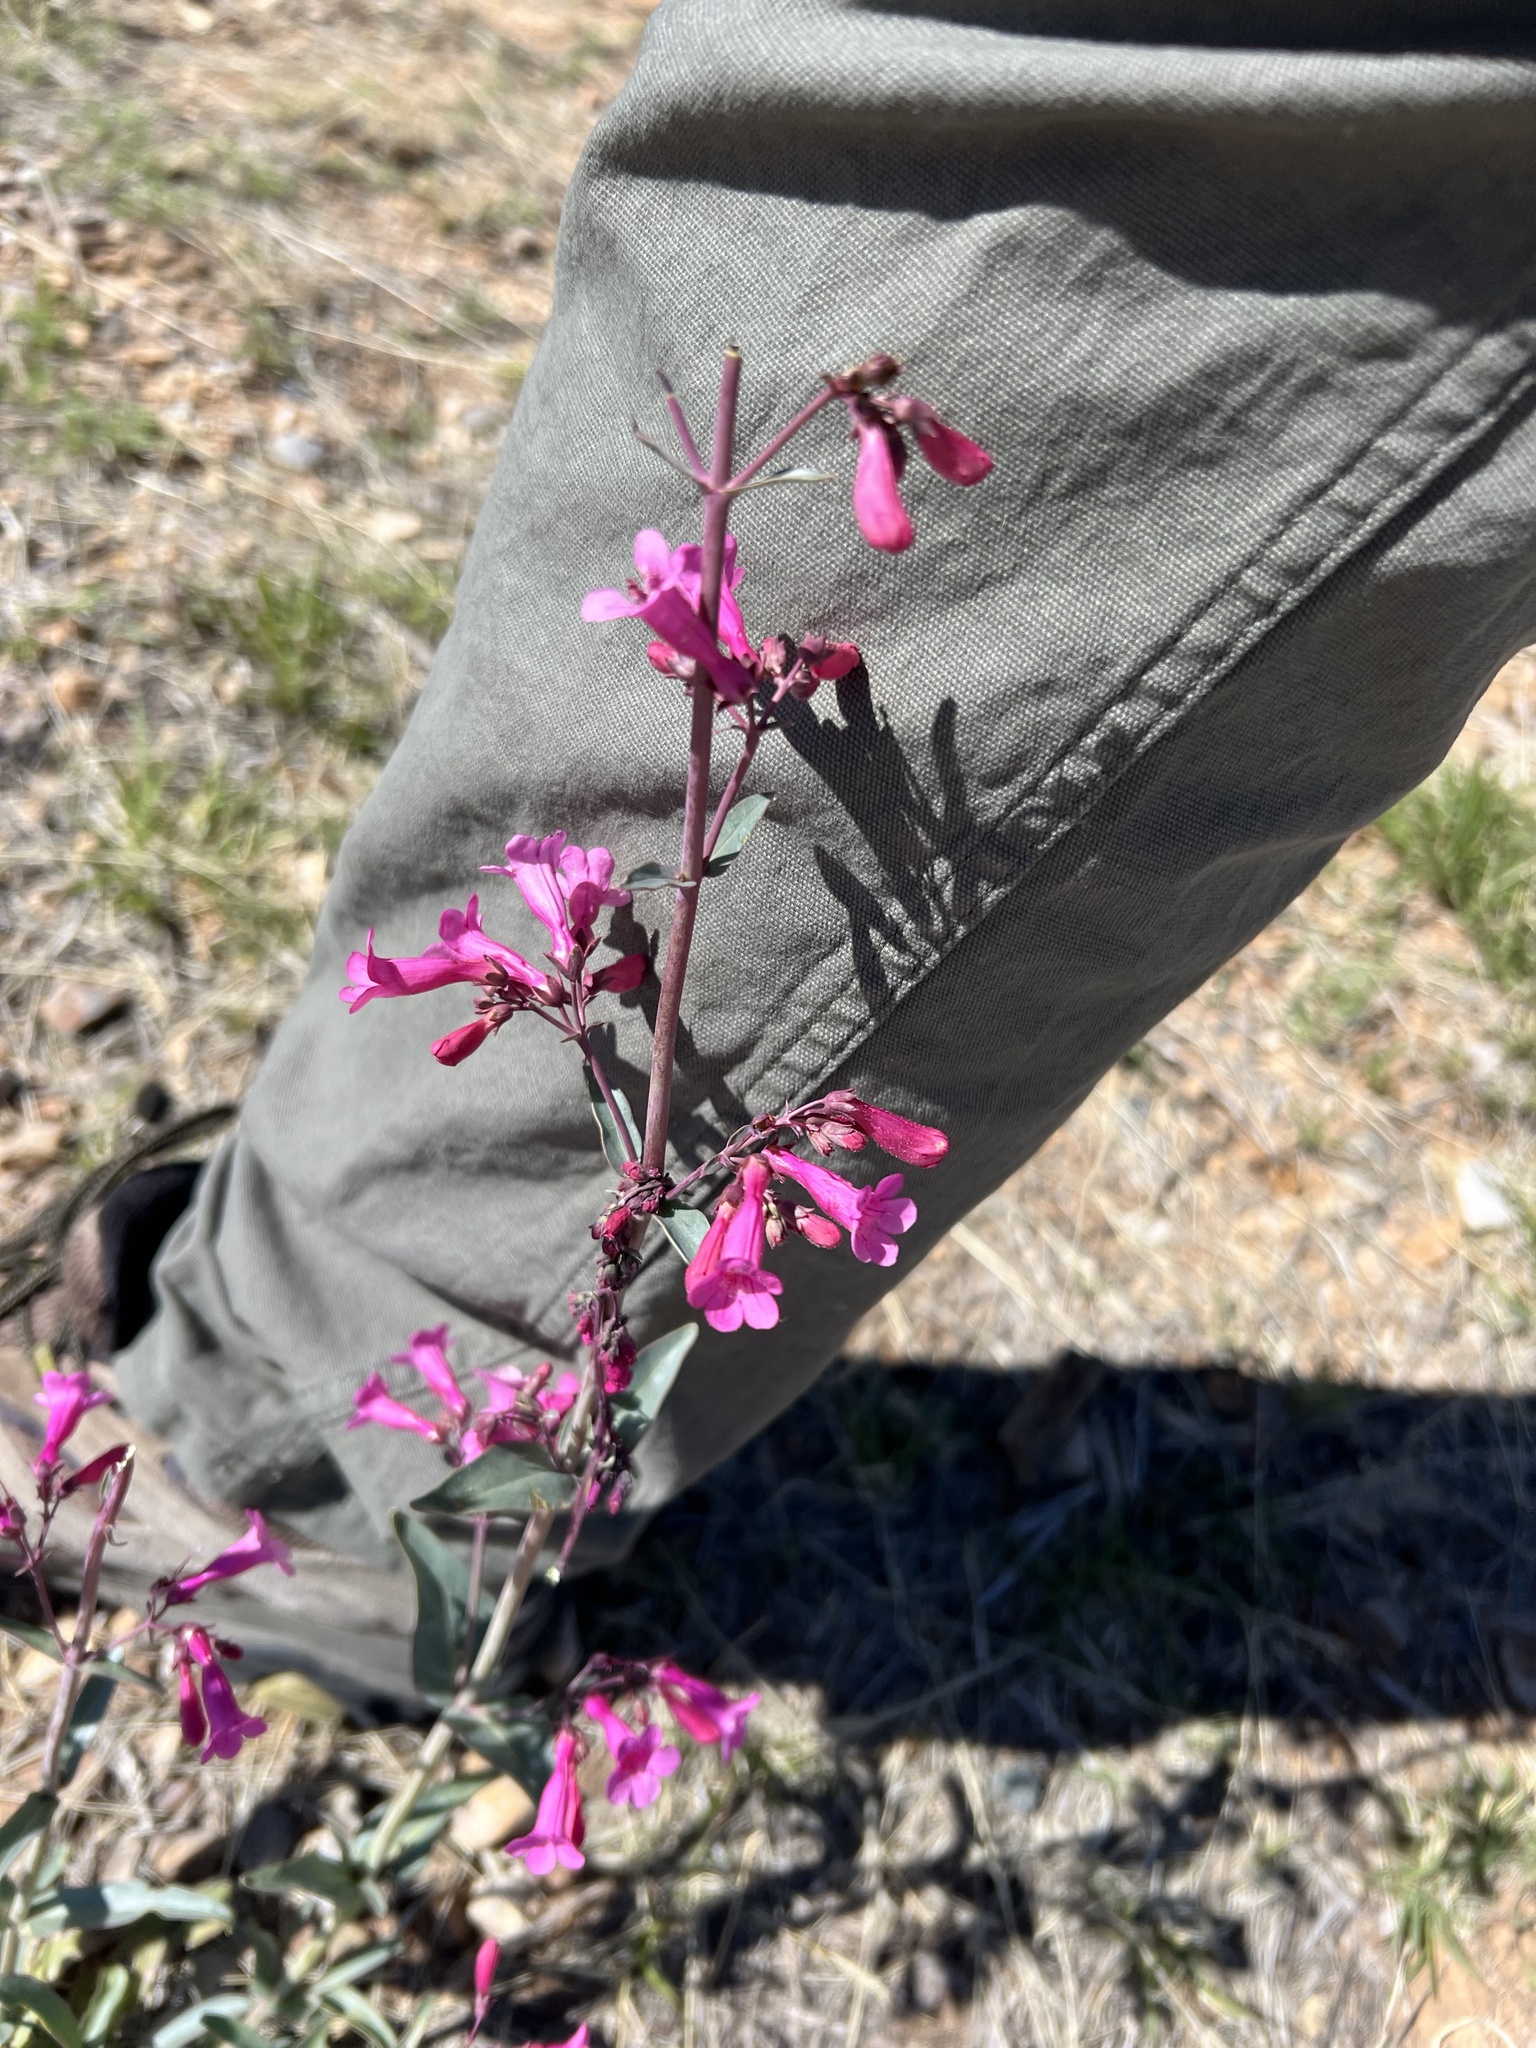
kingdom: Plantae
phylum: Tracheophyta
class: Magnoliopsida
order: Lamiales
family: Plantaginaceae
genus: Penstemon
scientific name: Penstemon parryi
